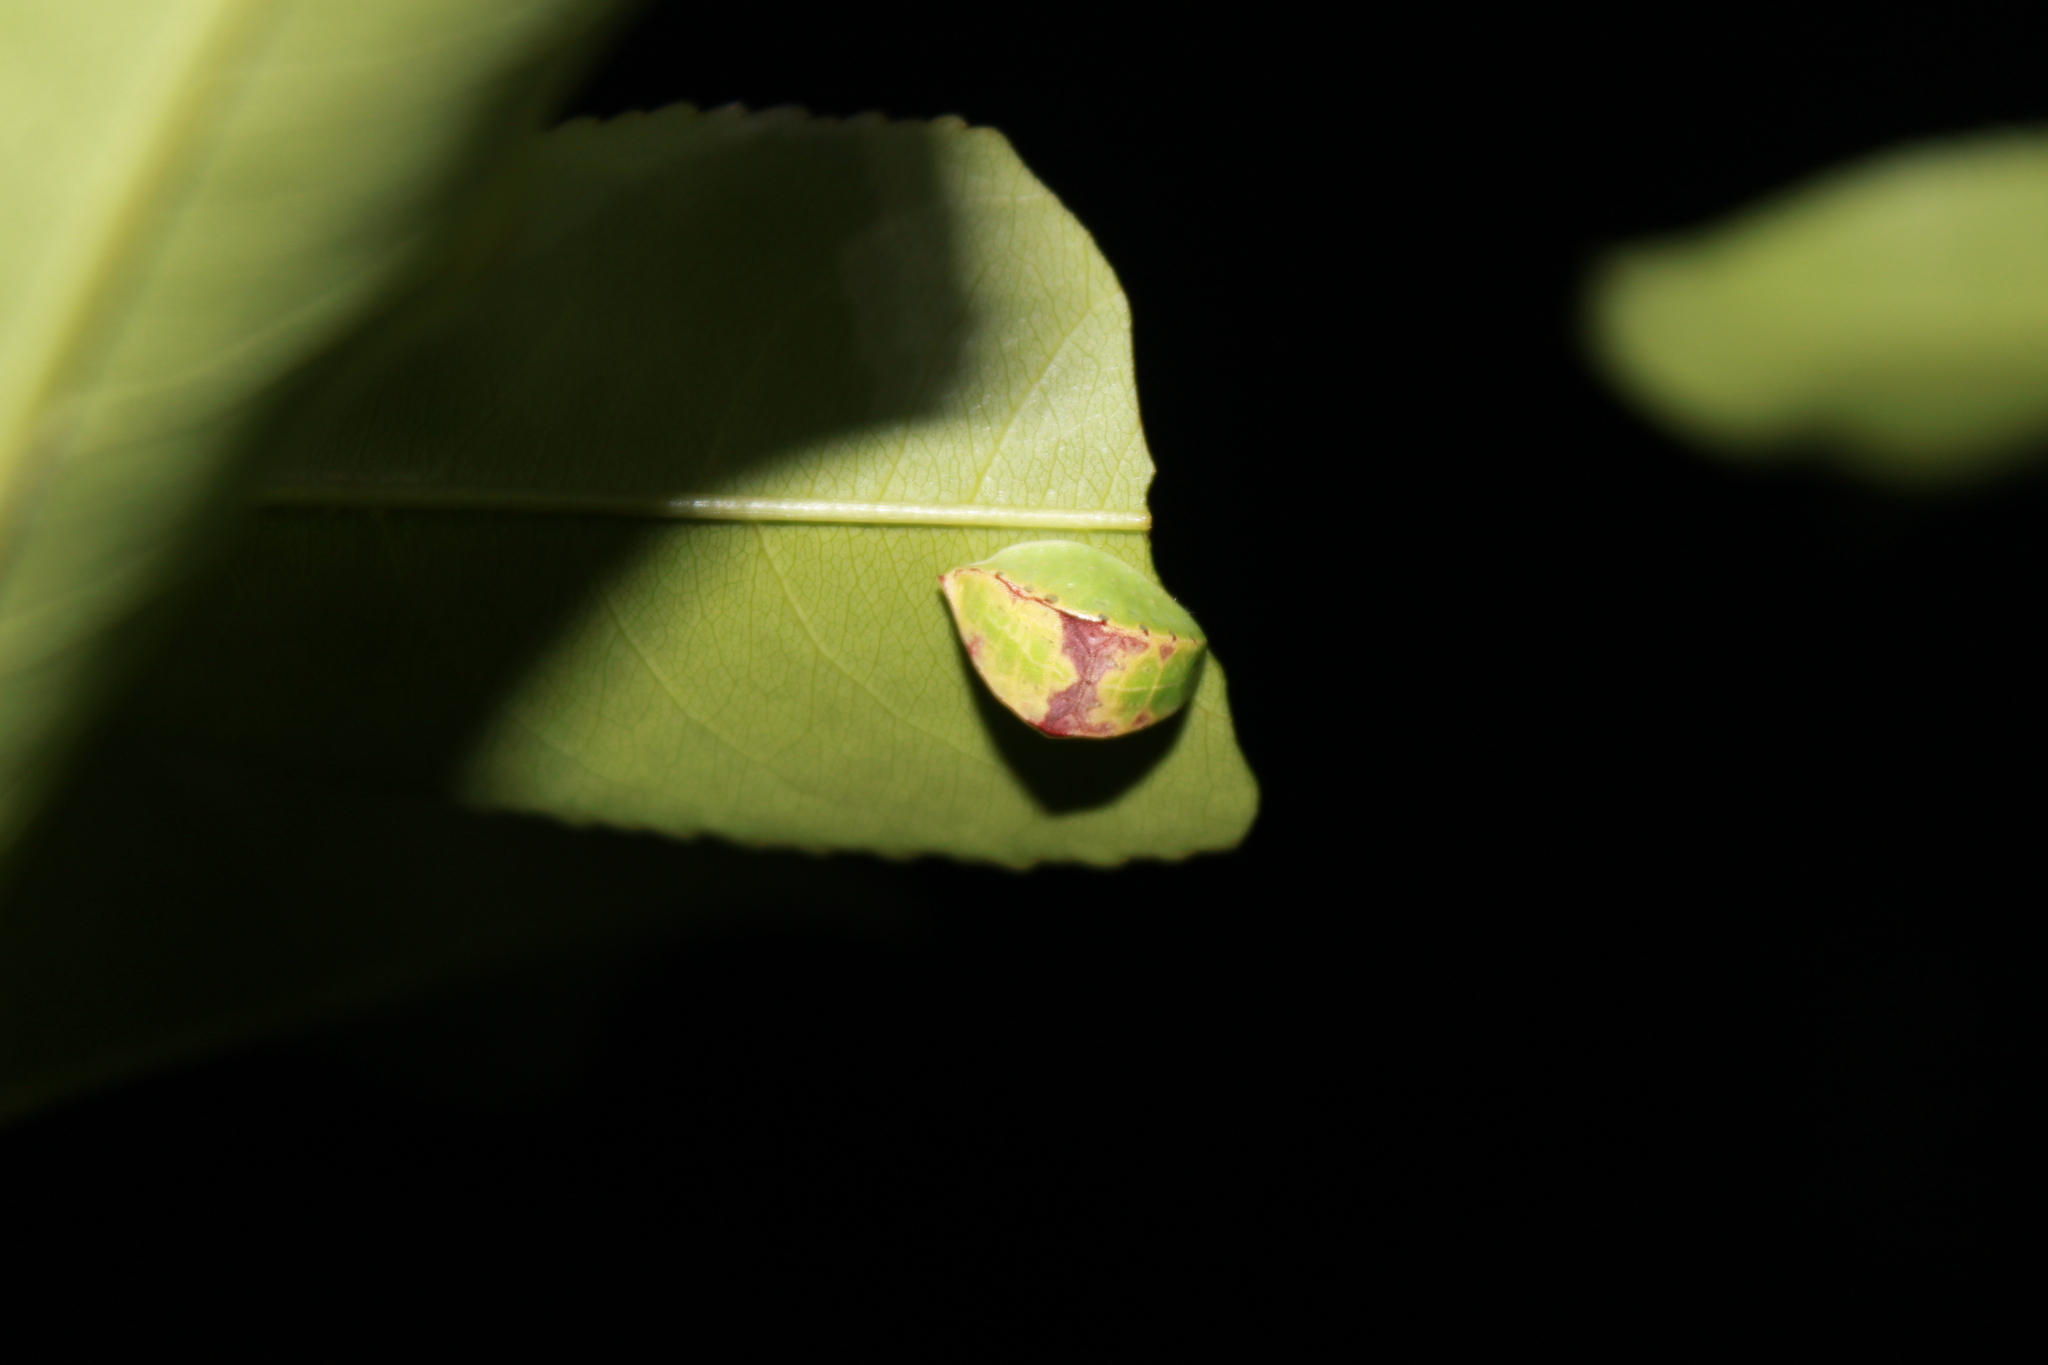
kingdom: Animalia
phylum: Arthropoda
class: Insecta
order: Lepidoptera
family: Limacodidae
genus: Prolimacodes
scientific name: Prolimacodes badia
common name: Skiff moth
